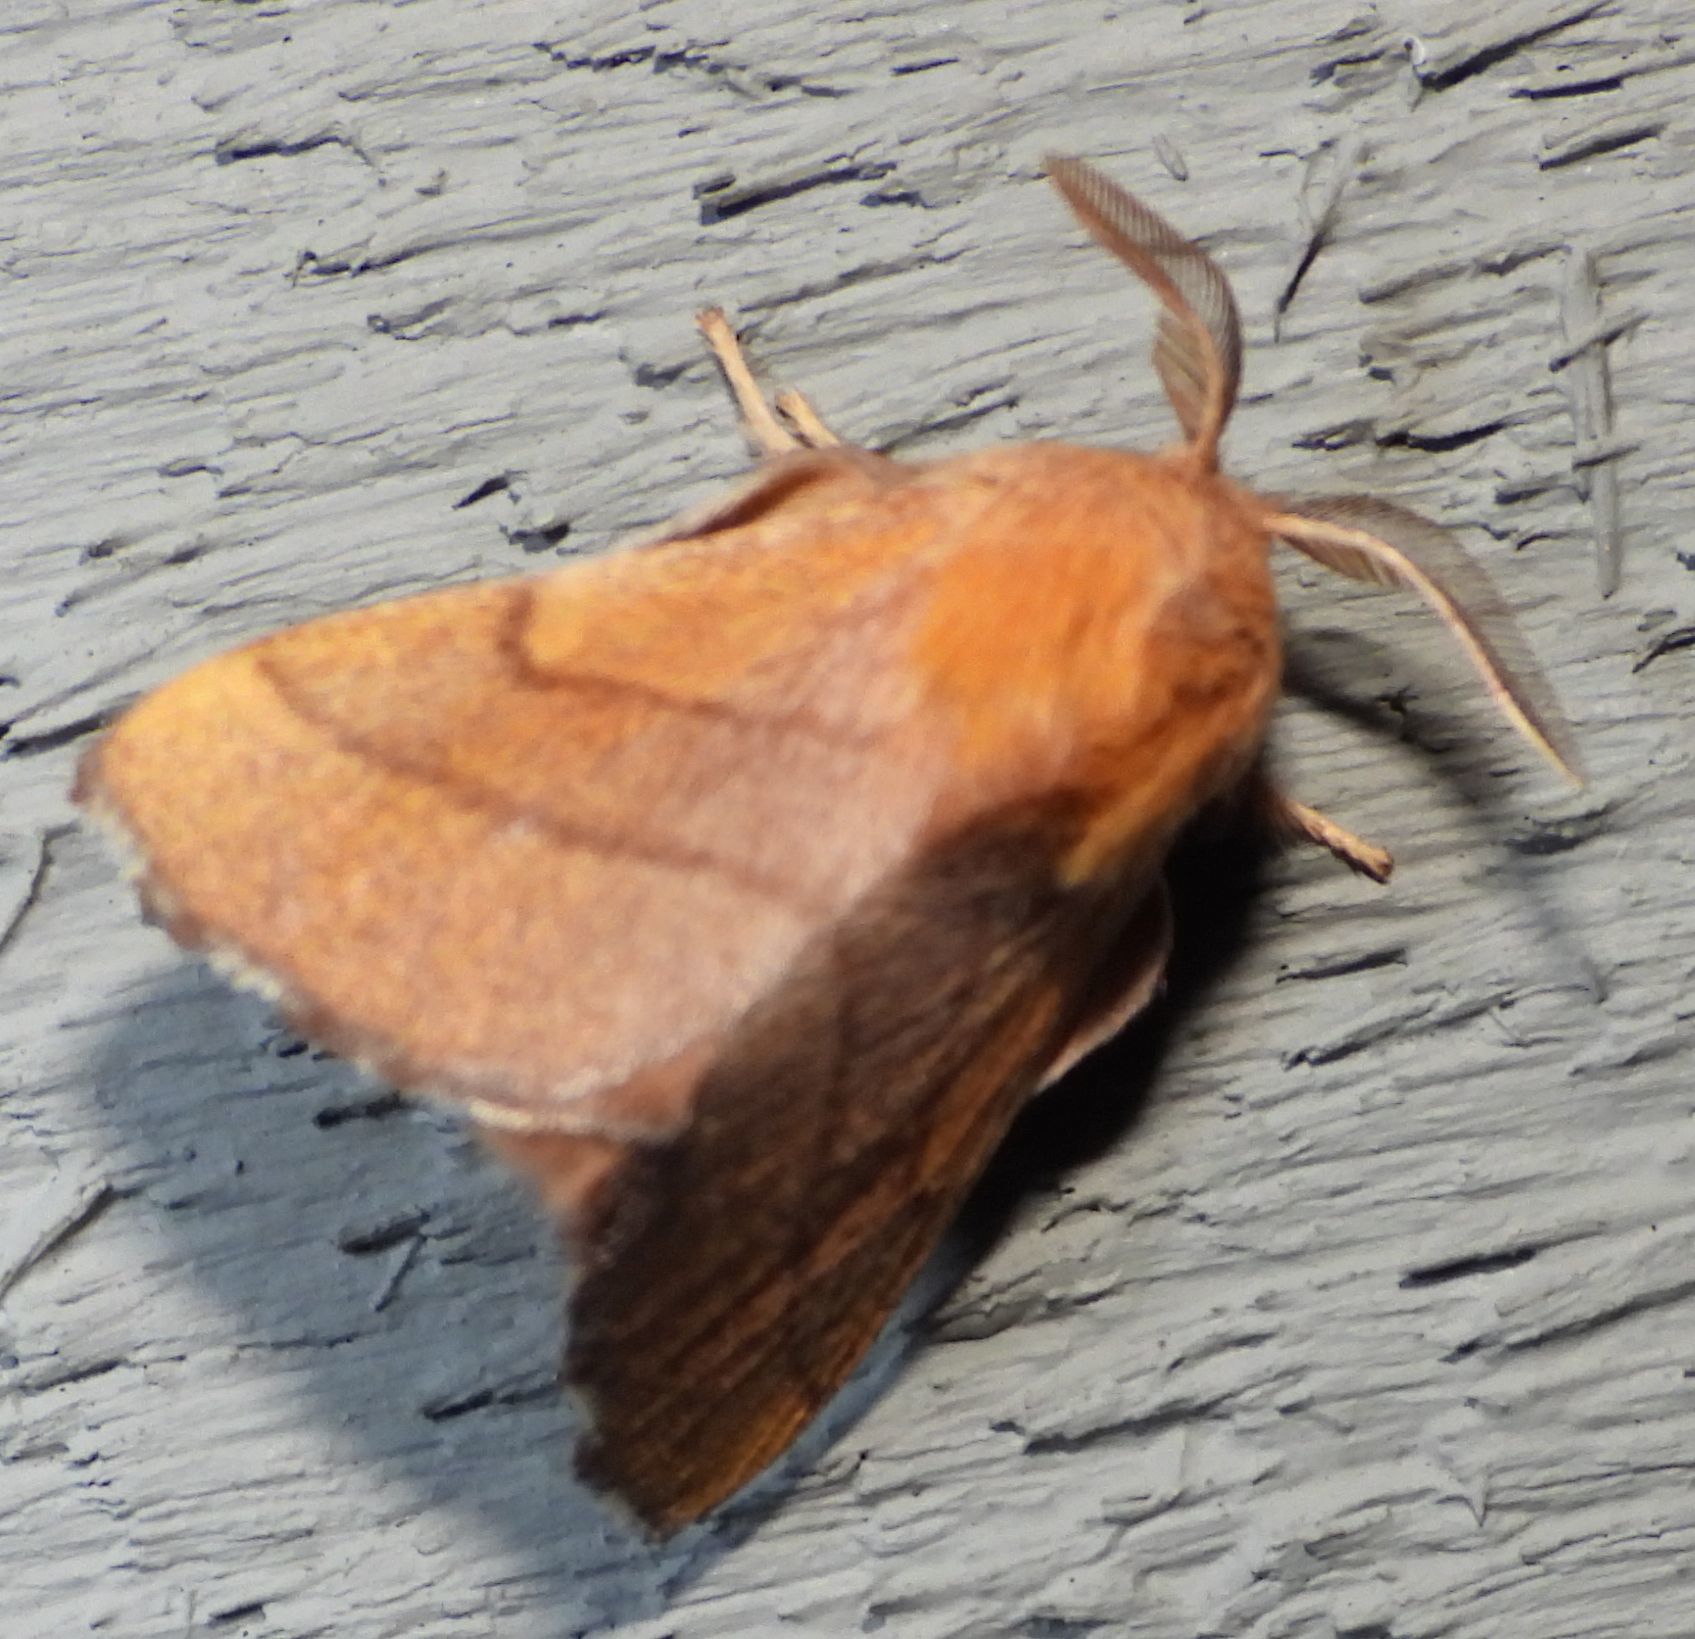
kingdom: Animalia
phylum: Arthropoda
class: Insecta
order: Lepidoptera
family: Lasiocampidae
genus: Malacosoma
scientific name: Malacosoma disstria
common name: Forest tent caterpillar
